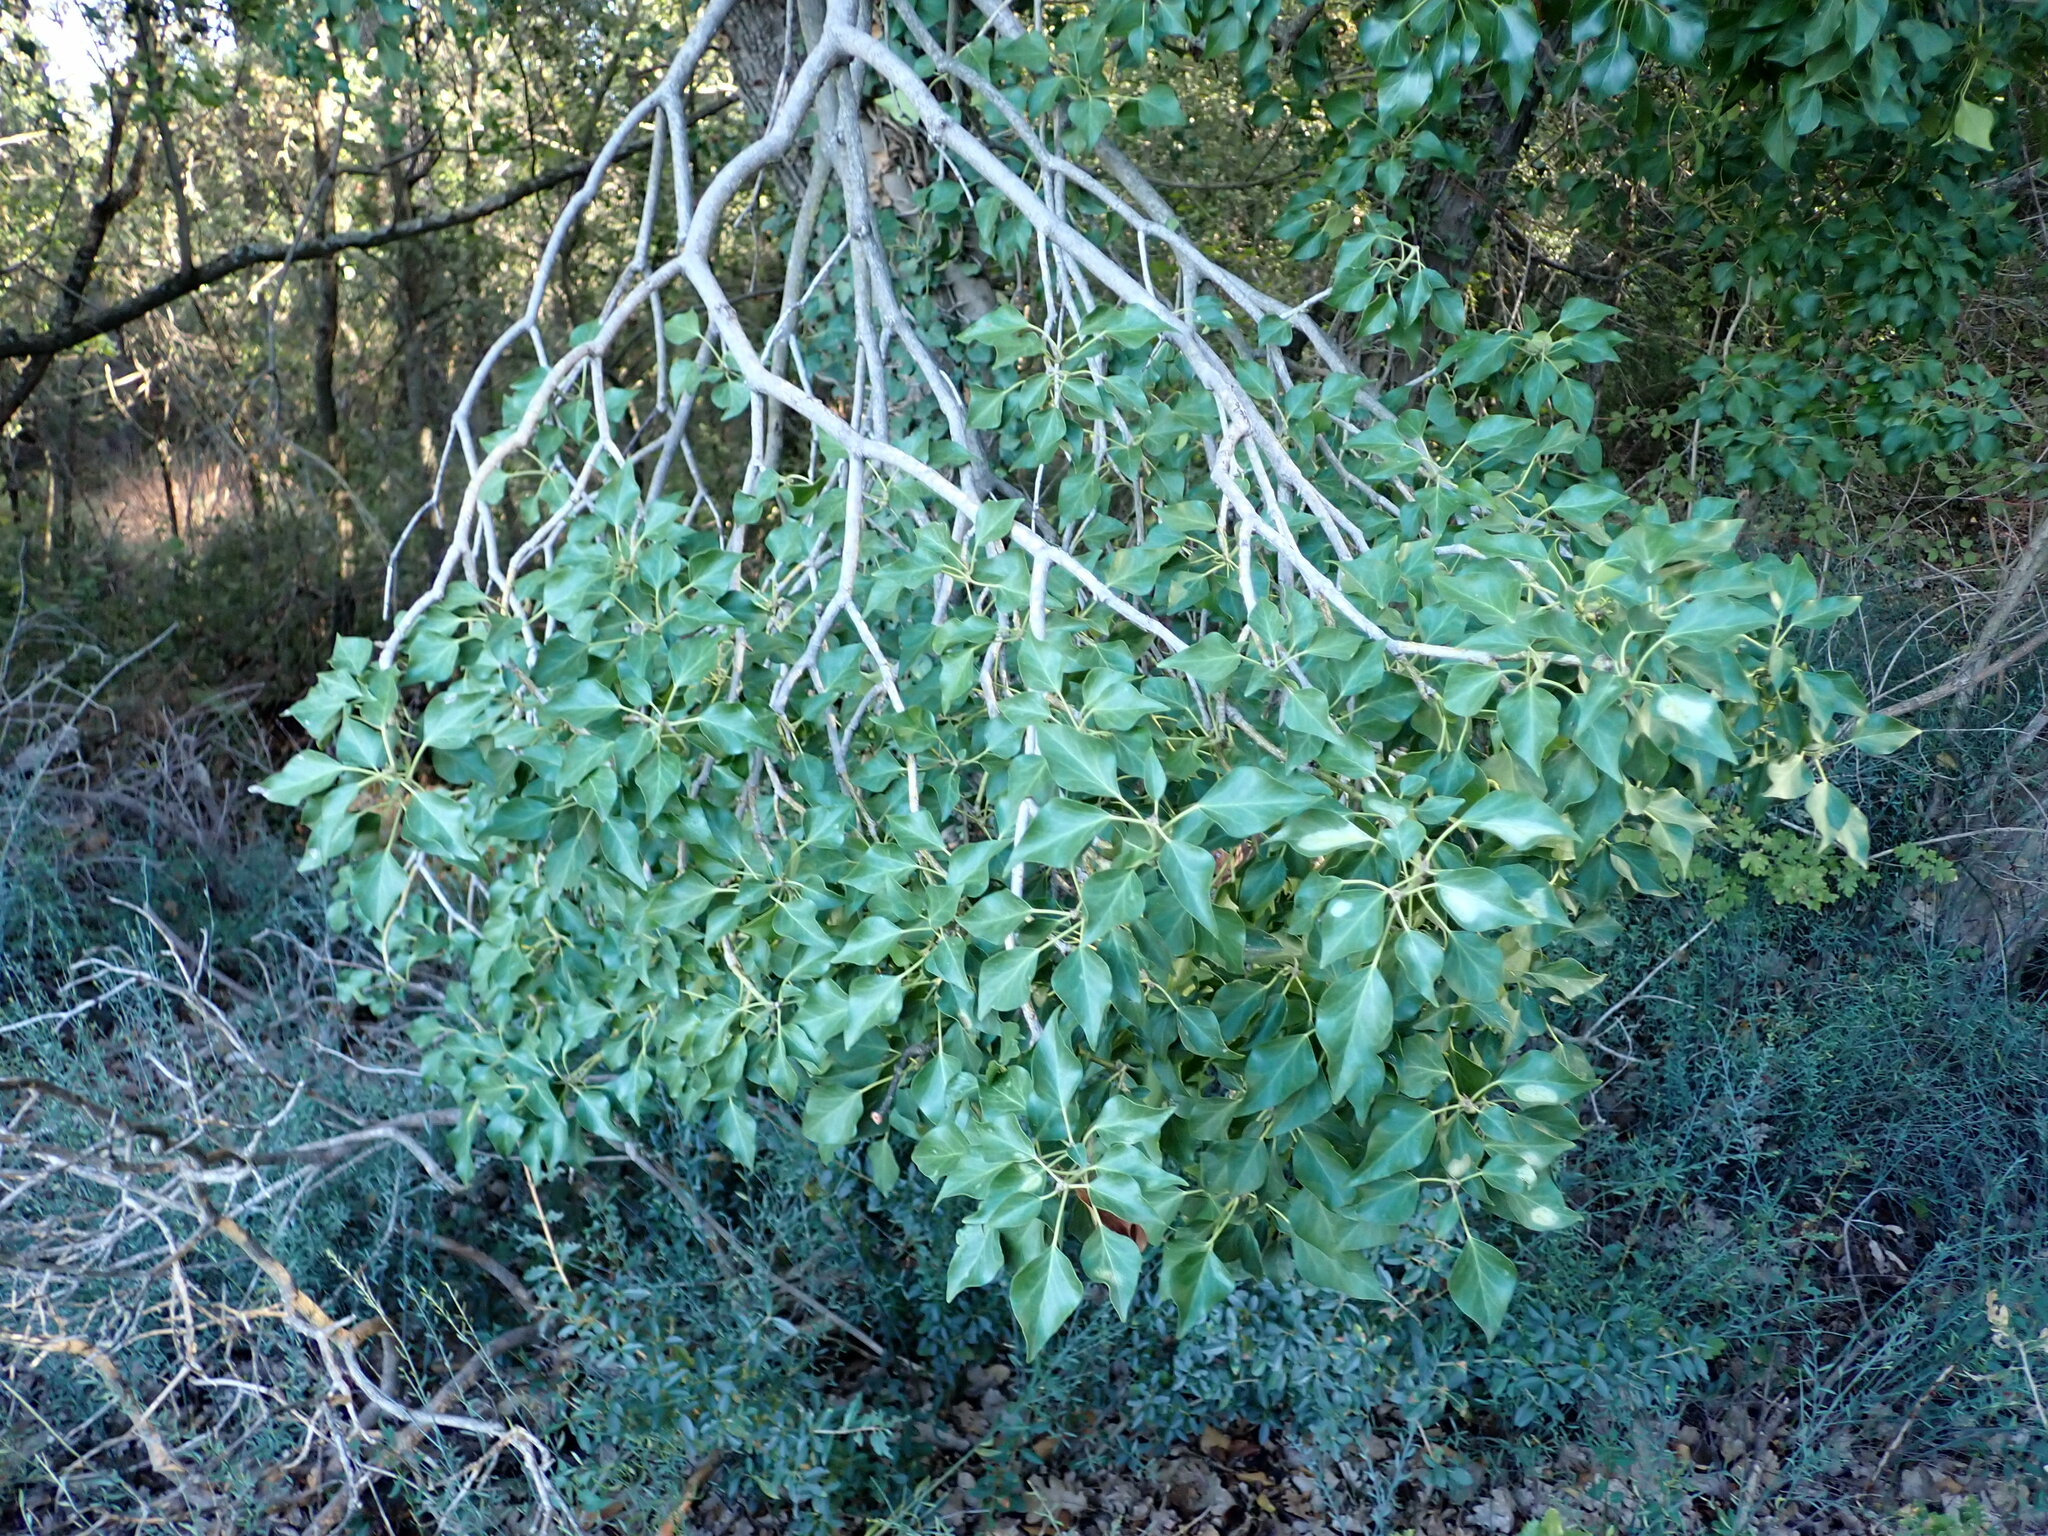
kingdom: Plantae
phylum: Tracheophyta
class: Magnoliopsida
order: Apiales
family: Araliaceae
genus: Hedera
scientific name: Hedera helix
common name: Ivy
